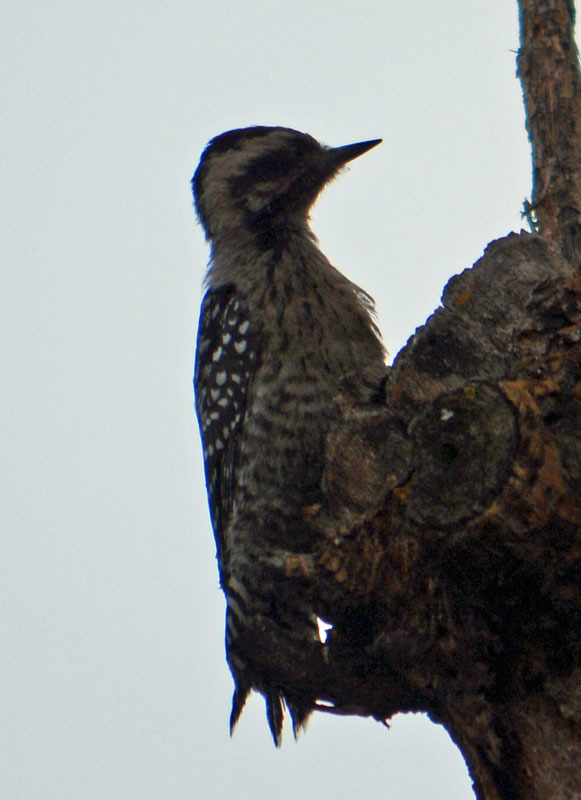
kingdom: Animalia
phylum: Chordata
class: Aves
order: Piciformes
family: Picidae
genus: Dryobates
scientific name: Dryobates scalaris
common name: Ladder-backed woodpecker
